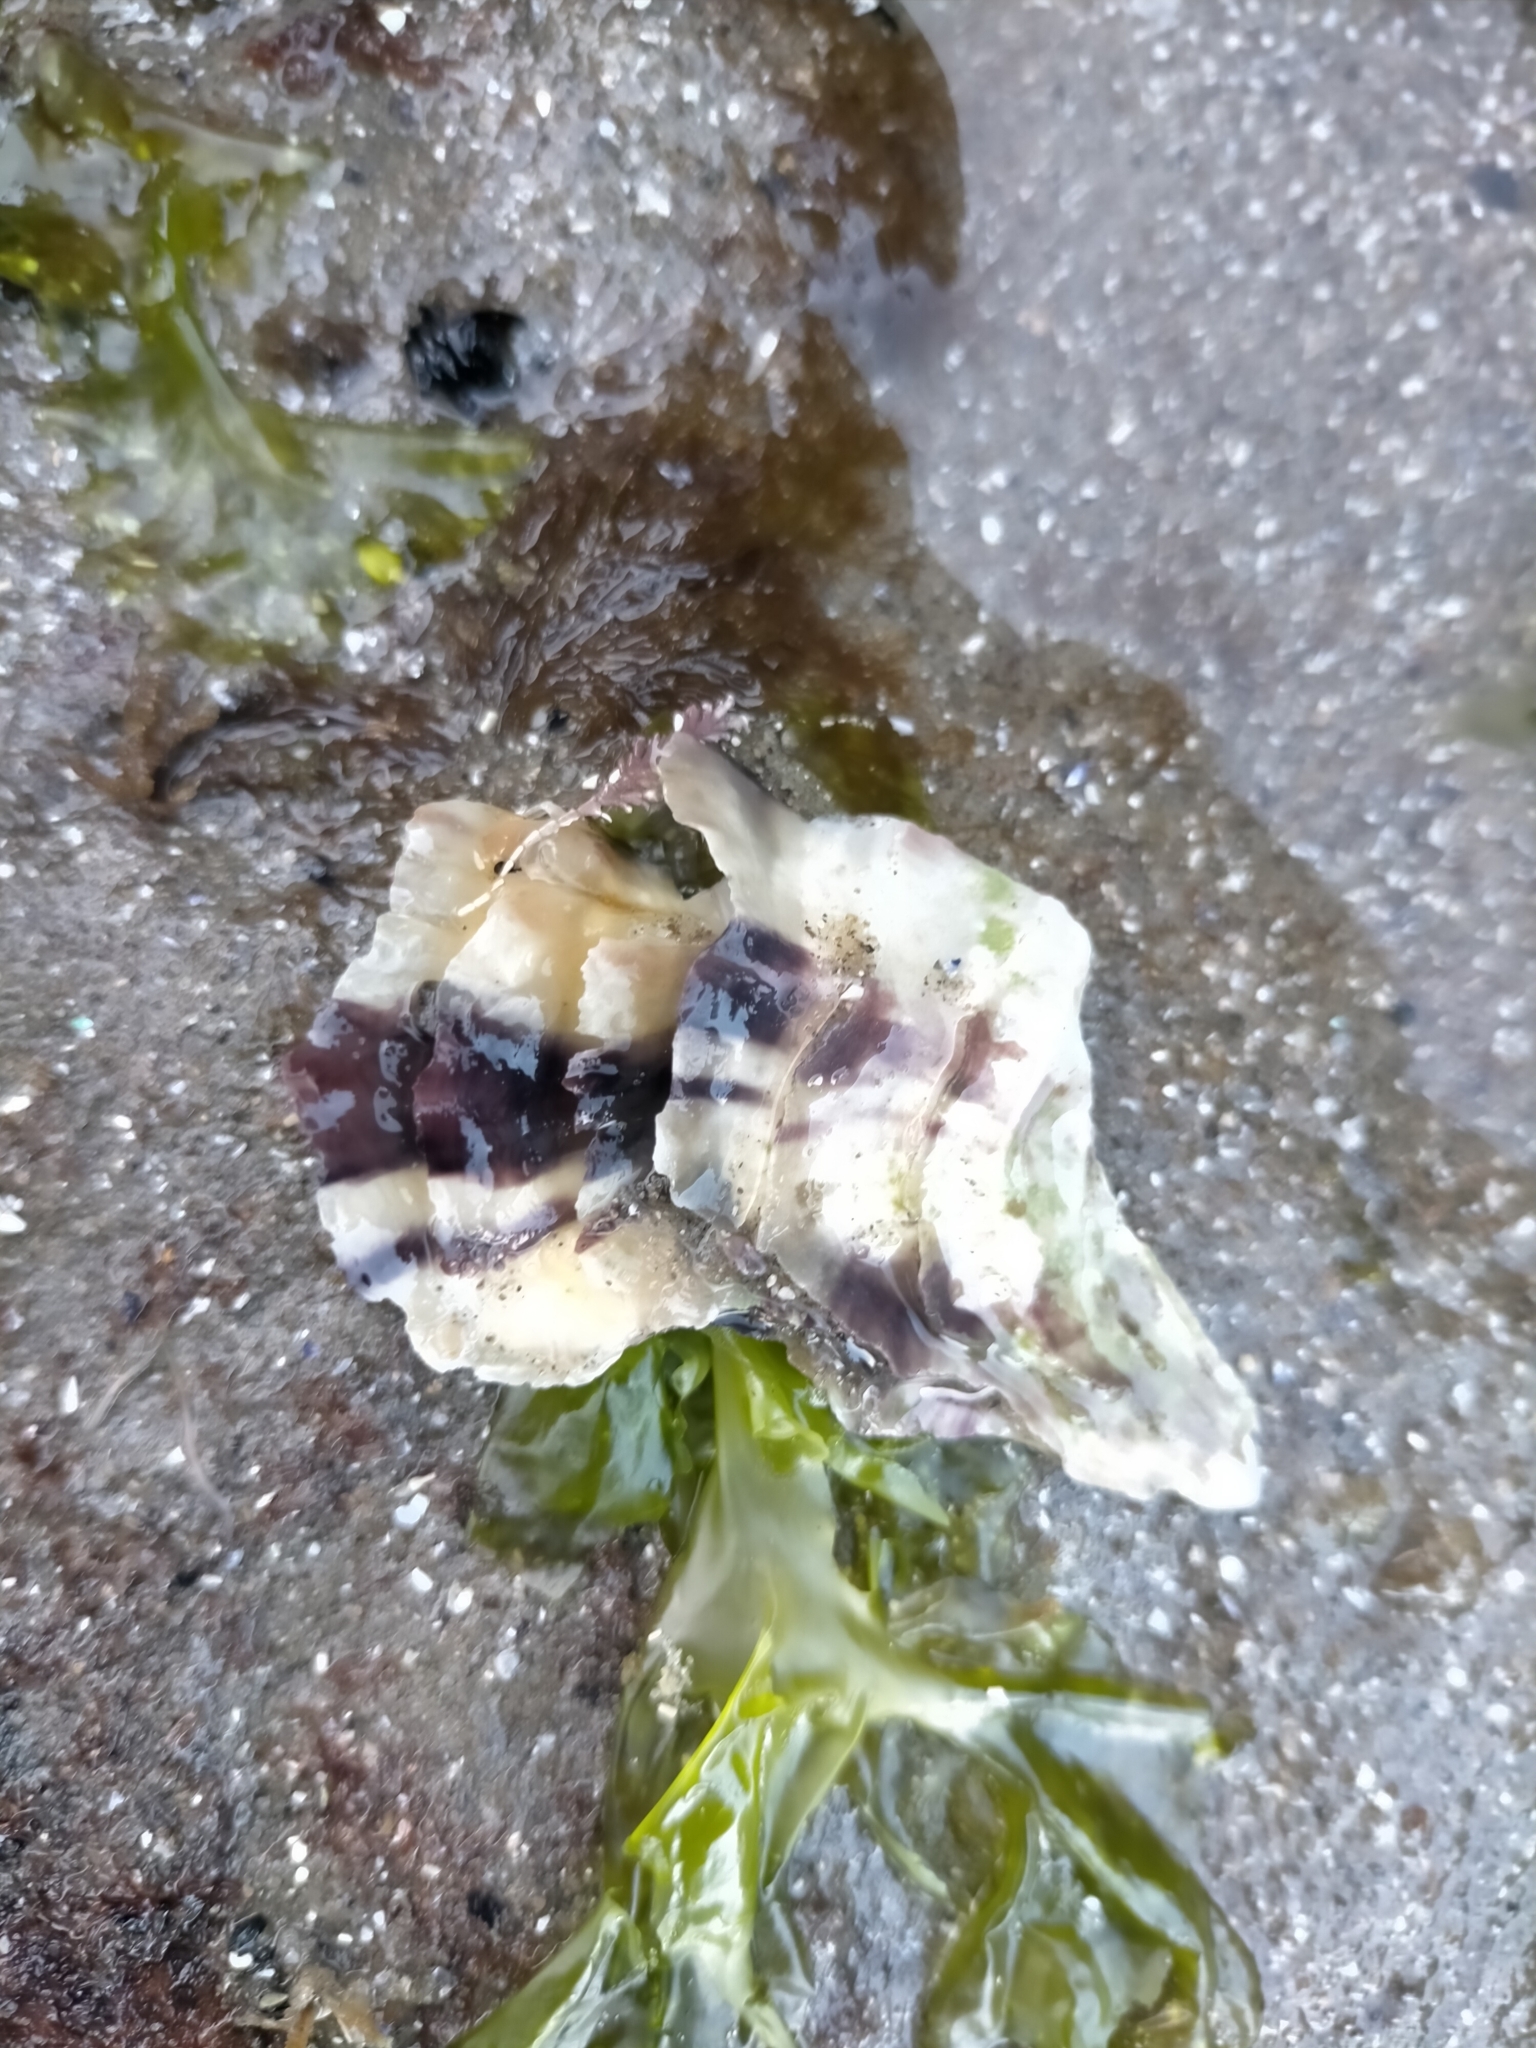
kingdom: Animalia
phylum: Mollusca
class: Bivalvia
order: Ostreida
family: Ostreidae
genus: Magallana
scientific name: Magallana gigas
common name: Pacific oyster
